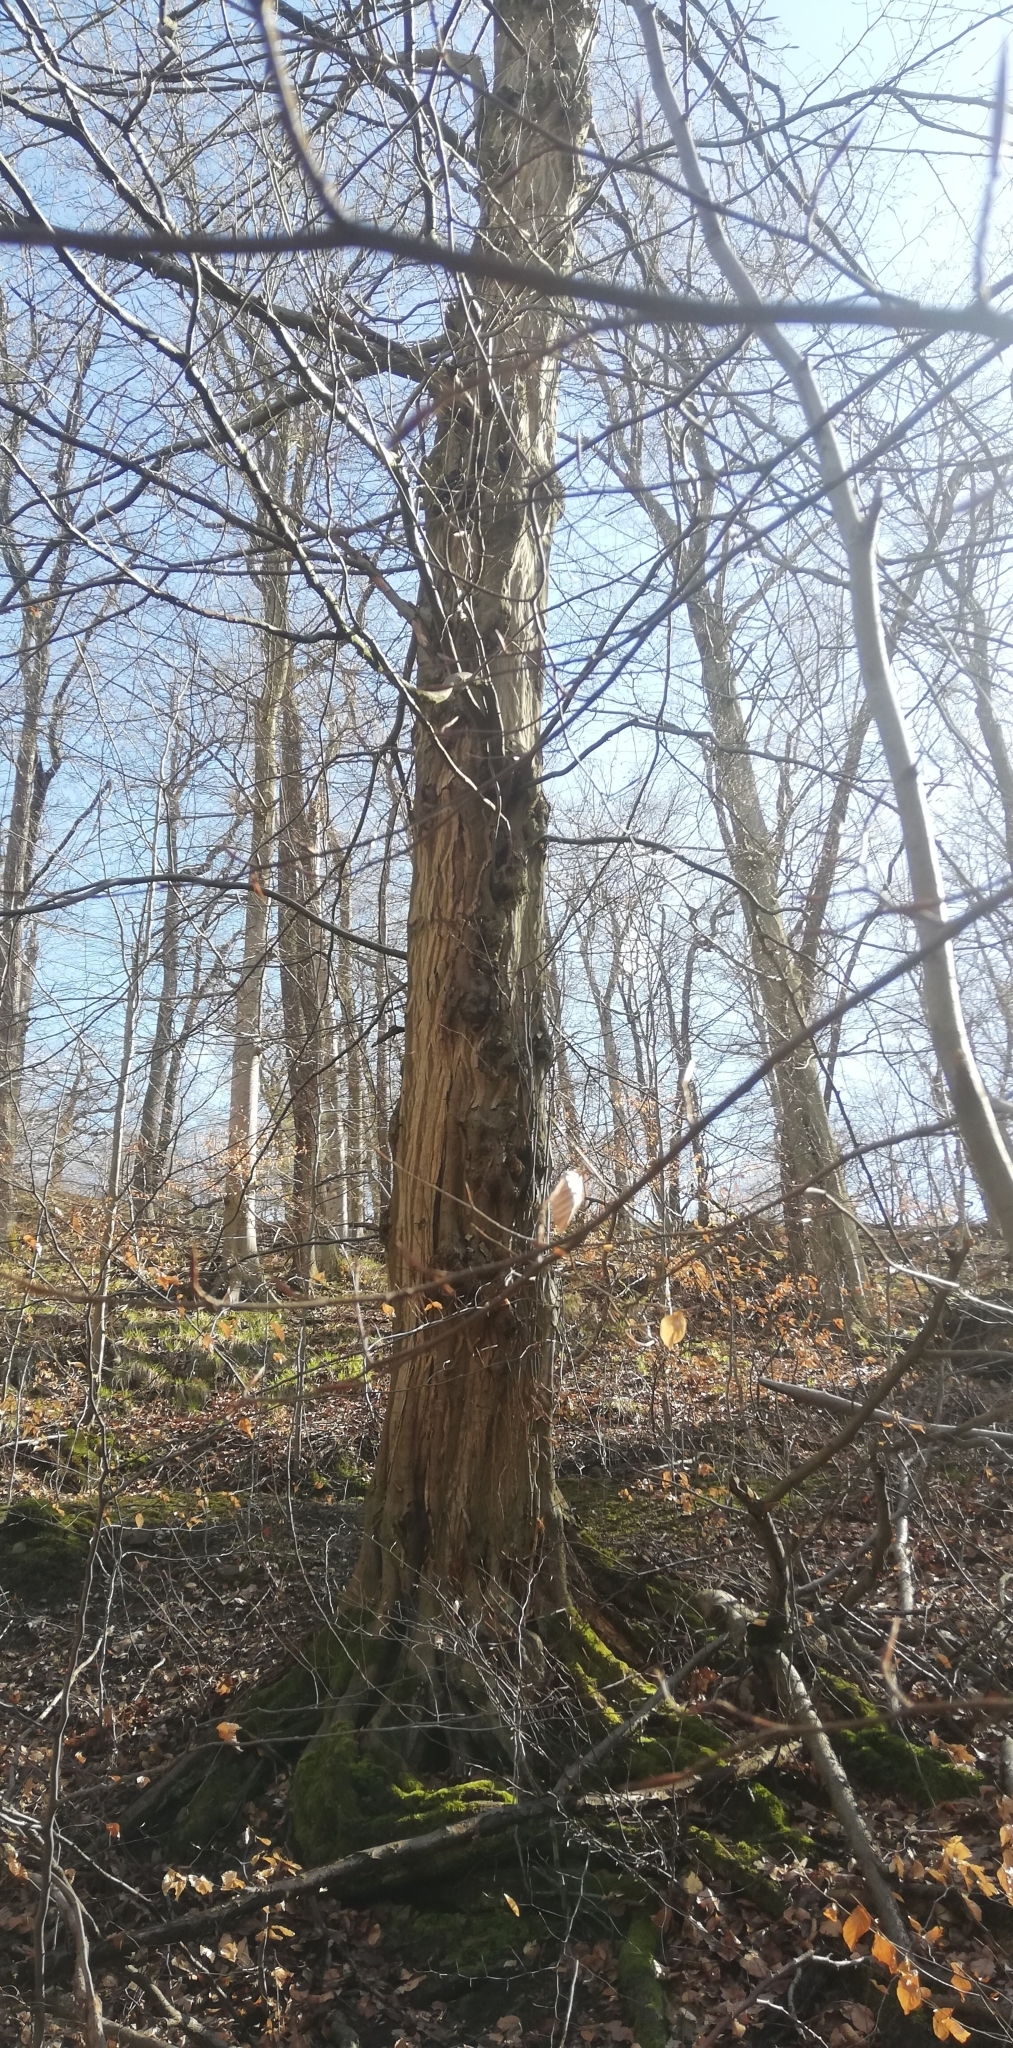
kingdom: Plantae
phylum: Tracheophyta
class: Magnoliopsida
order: Fagales
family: Betulaceae
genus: Carpinus
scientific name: Carpinus betulus
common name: Hornbeam
